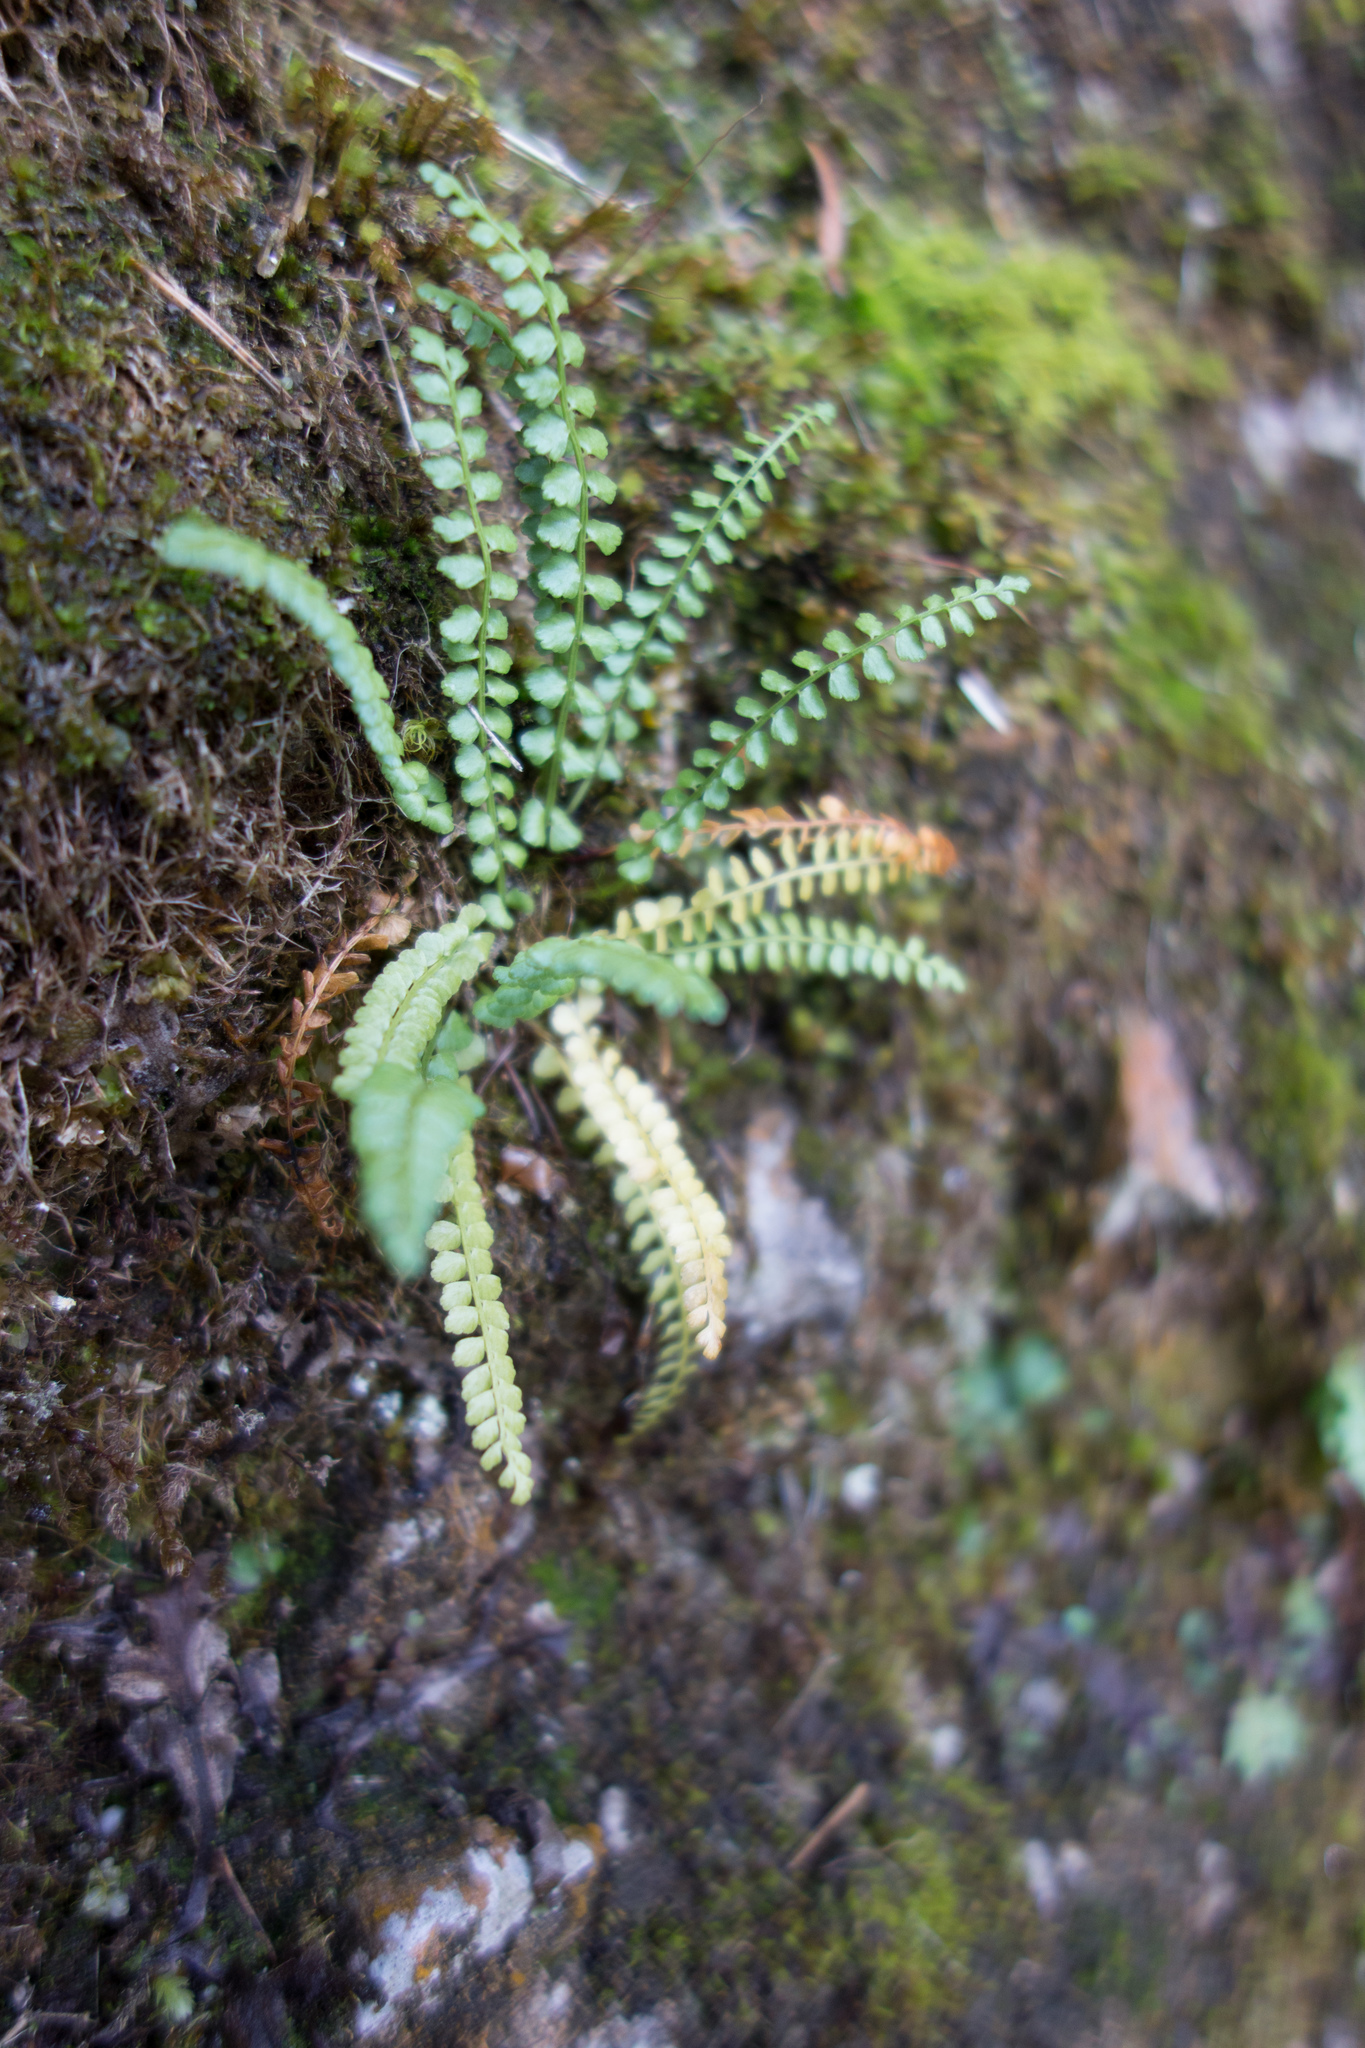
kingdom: Plantae
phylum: Tracheophyta
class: Polypodiopsida
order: Polypodiales
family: Aspleniaceae
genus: Asplenium
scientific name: Asplenium viride
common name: Green spleenwort
